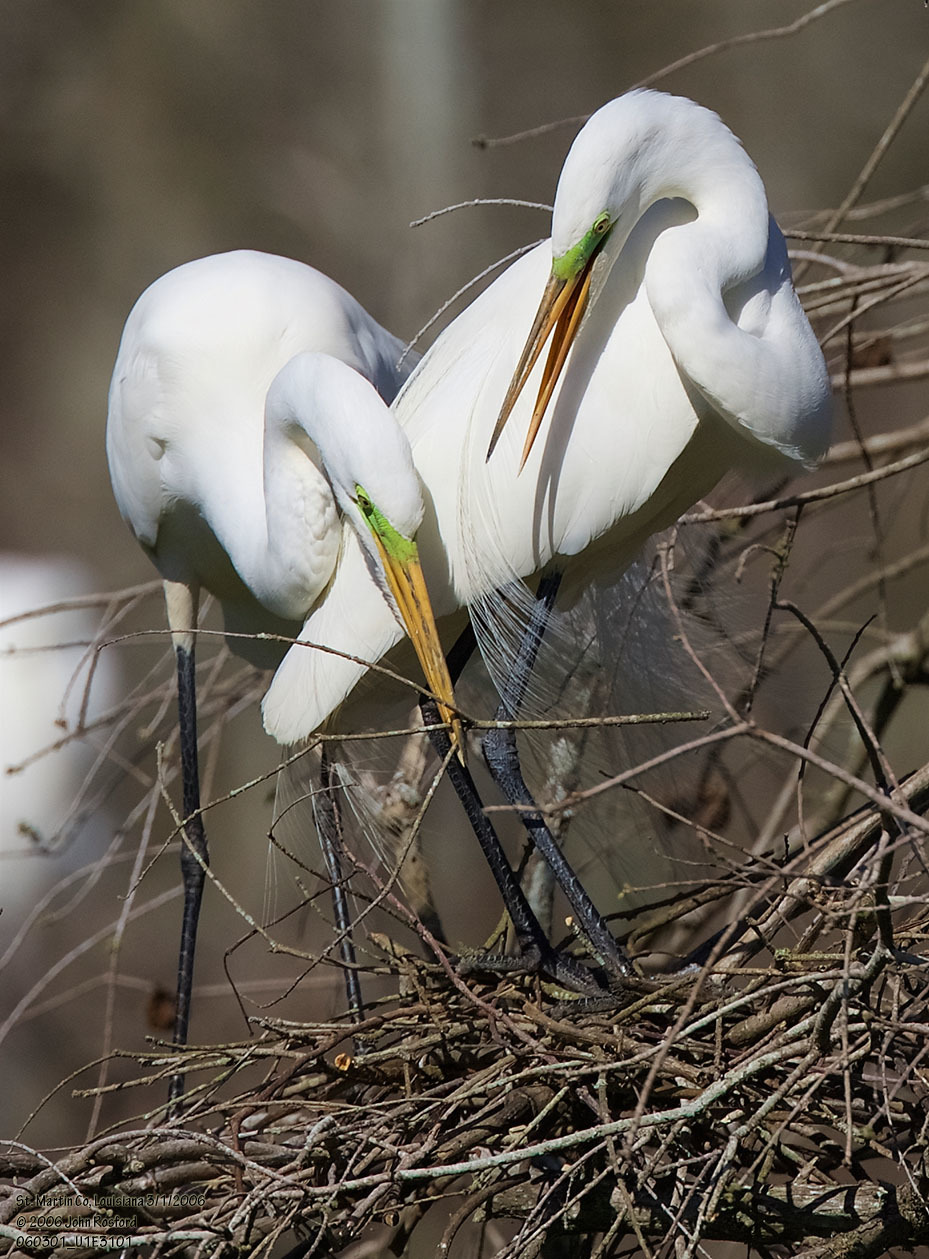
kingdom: Animalia
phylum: Chordata
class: Aves
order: Pelecaniformes
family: Ardeidae
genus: Ardea
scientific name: Ardea alba
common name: Great egret
